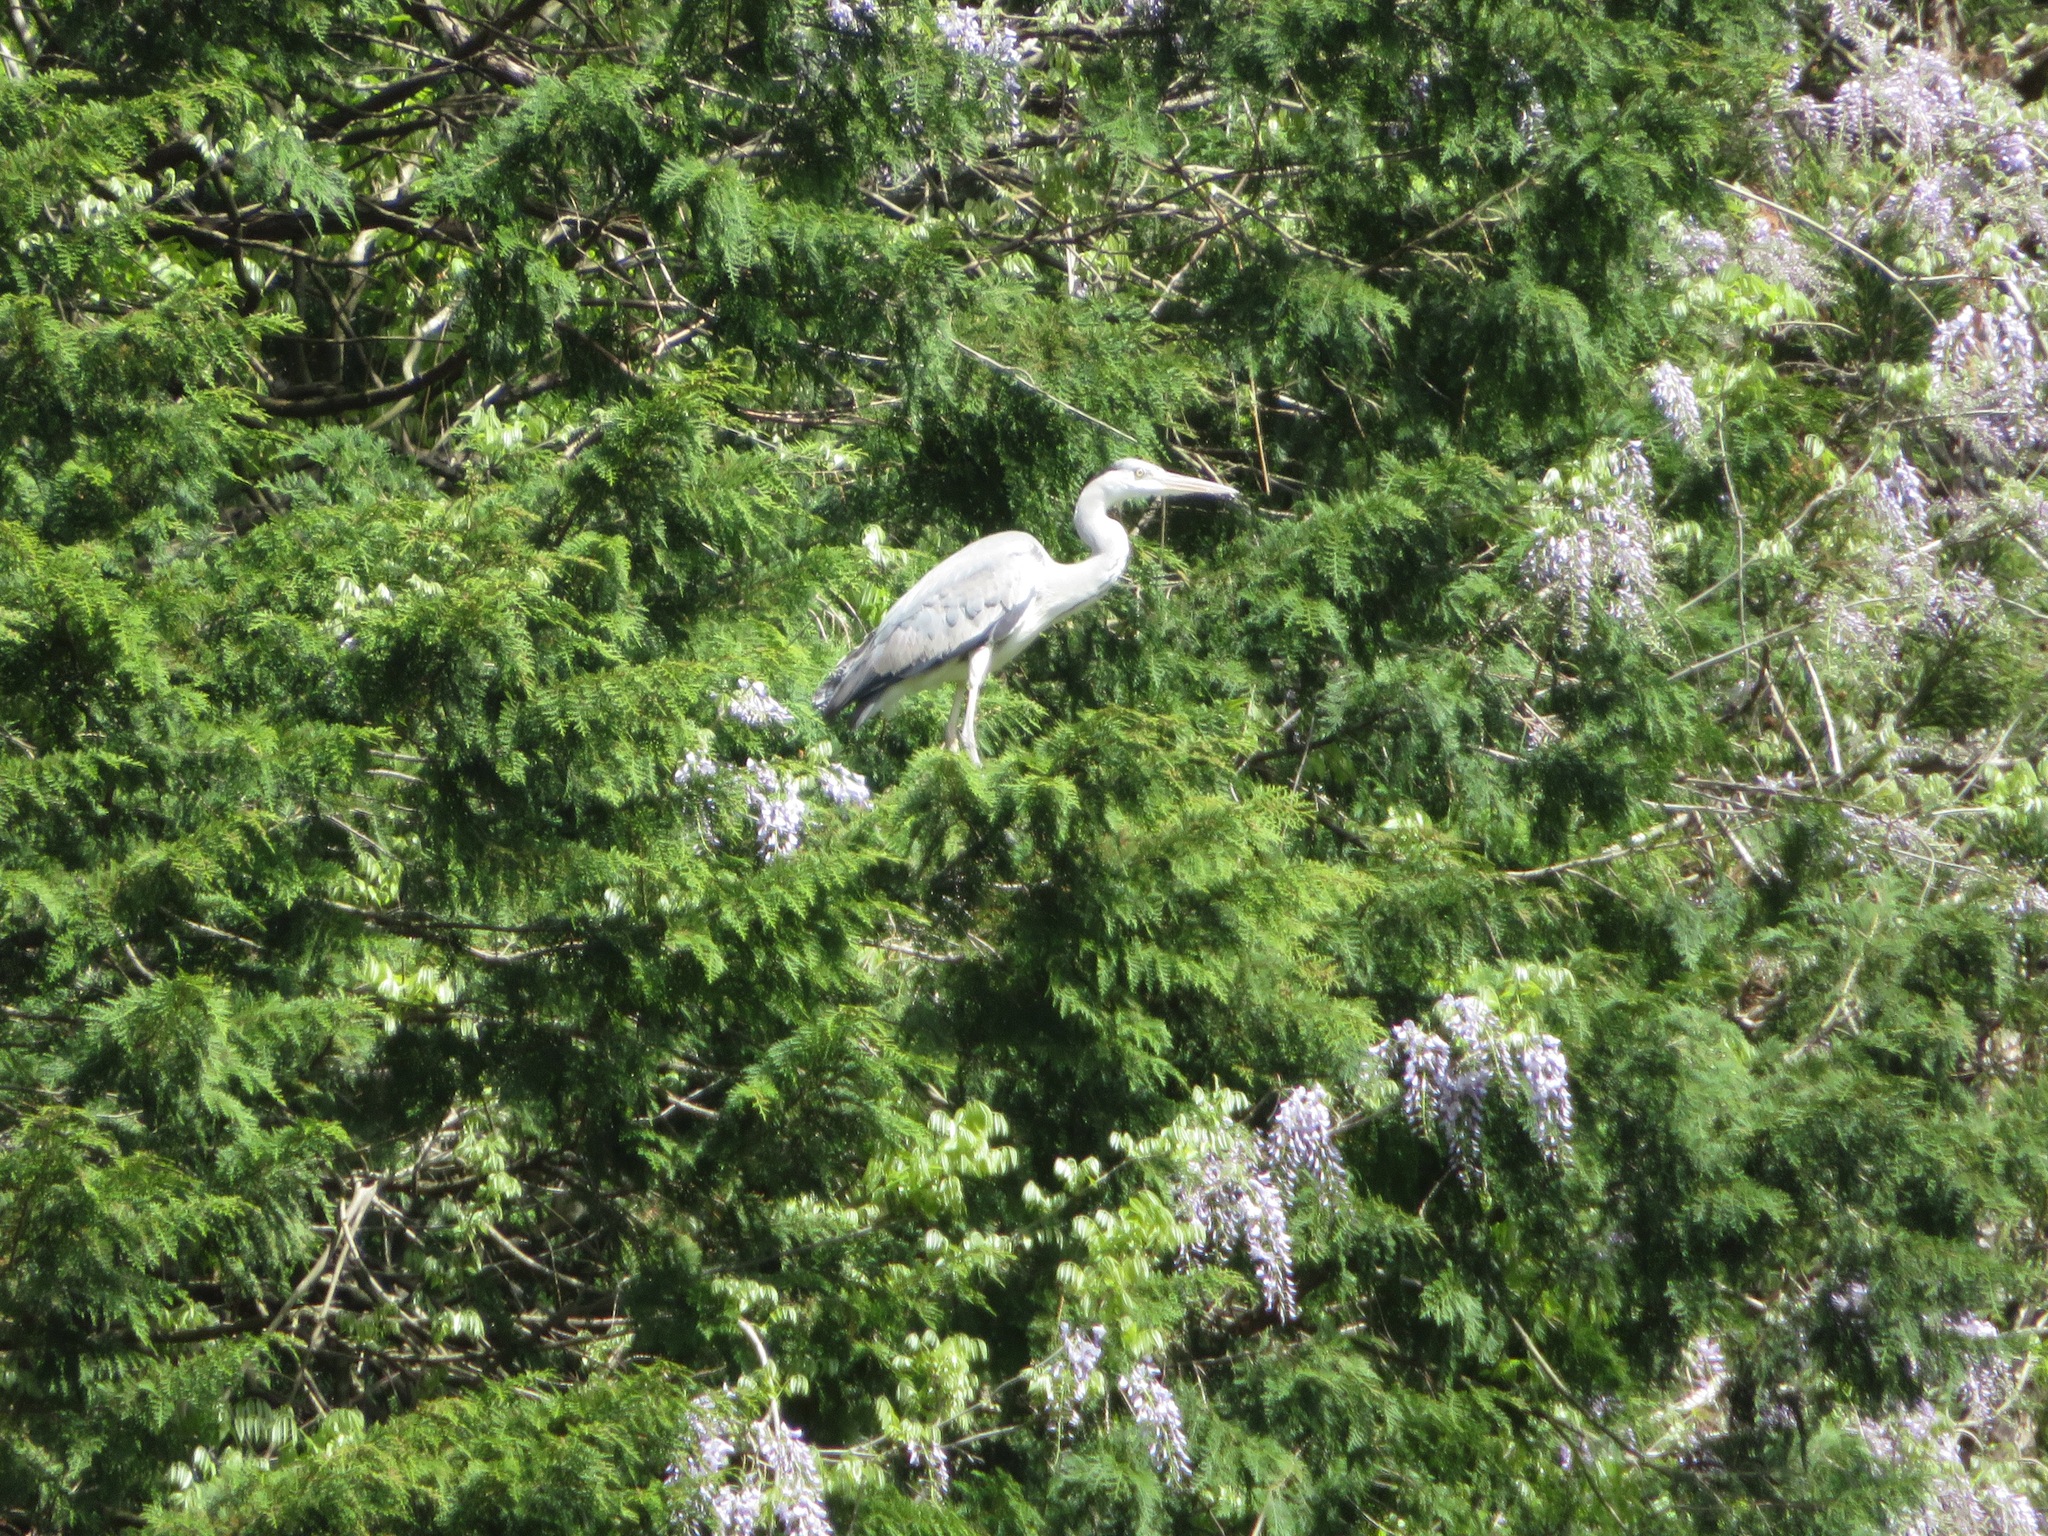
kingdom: Animalia
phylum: Chordata
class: Aves
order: Pelecaniformes
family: Ardeidae
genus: Ardea
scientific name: Ardea cinerea
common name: Grey heron
